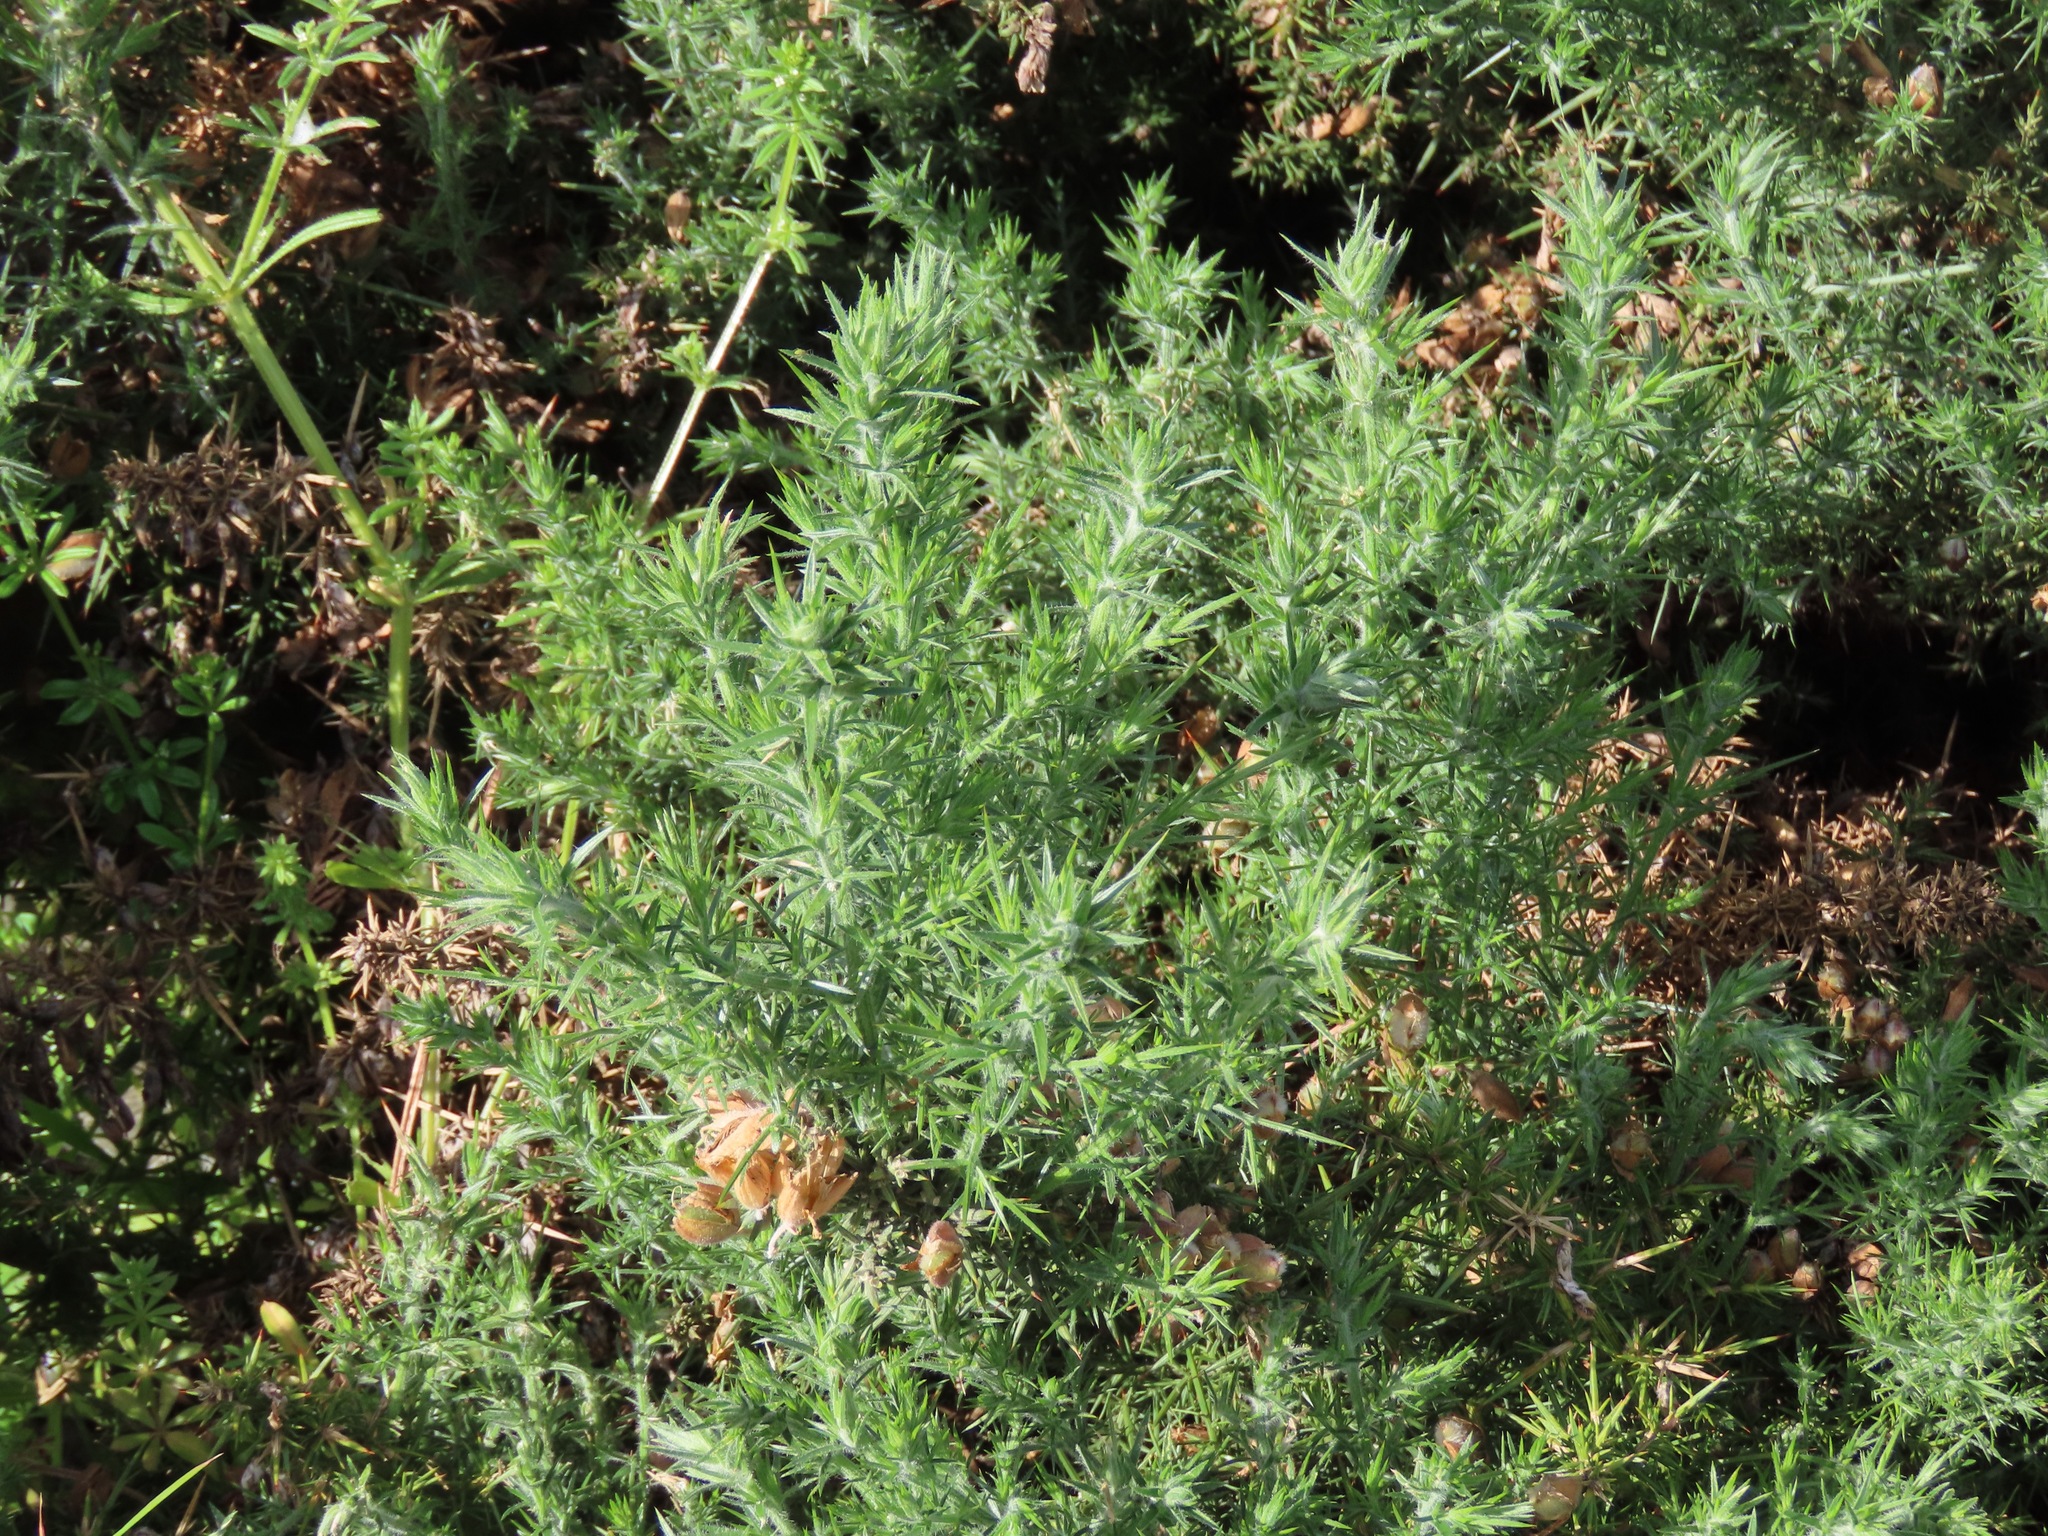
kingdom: Plantae
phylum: Tracheophyta
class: Magnoliopsida
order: Fabales
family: Fabaceae
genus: Ulex
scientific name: Ulex europaeus
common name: Common gorse
